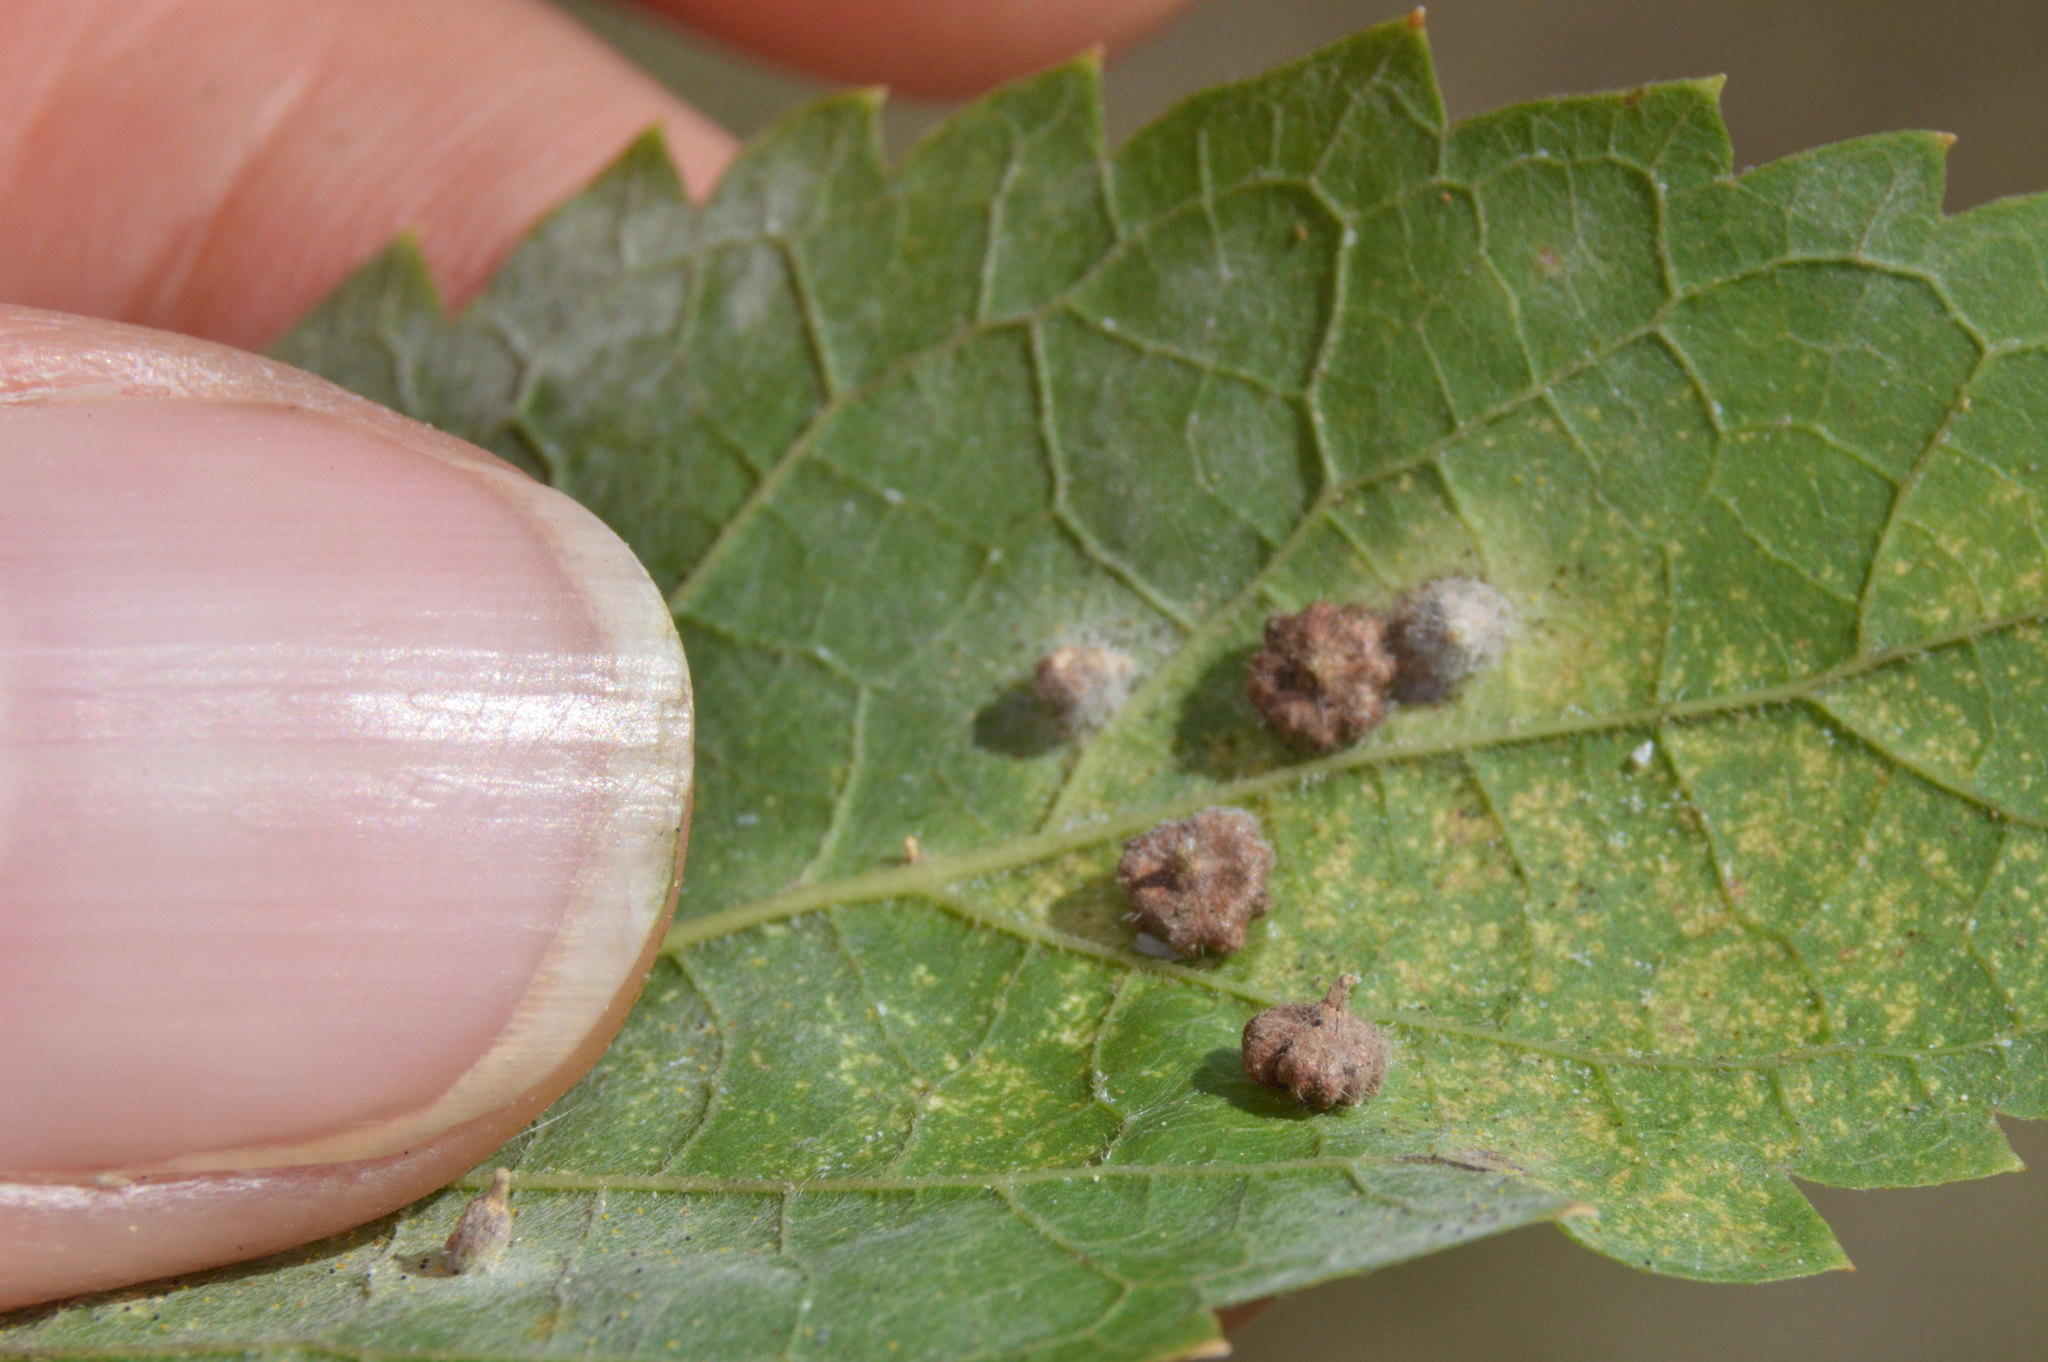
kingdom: Animalia
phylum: Arthropoda
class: Insecta
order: Diptera
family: Cecidomyiidae
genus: Celticecis
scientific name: Celticecis capsularis
